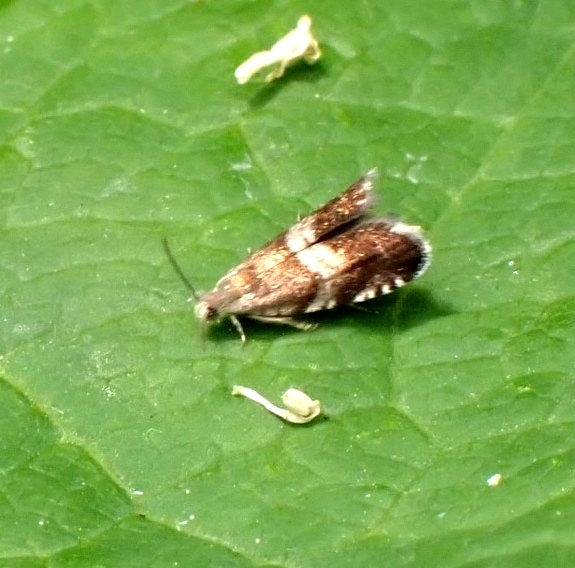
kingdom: Animalia
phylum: Arthropoda
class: Insecta
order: Lepidoptera
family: Tortricidae
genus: Strophedra
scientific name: Strophedra nitidana
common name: Little oak piercer
